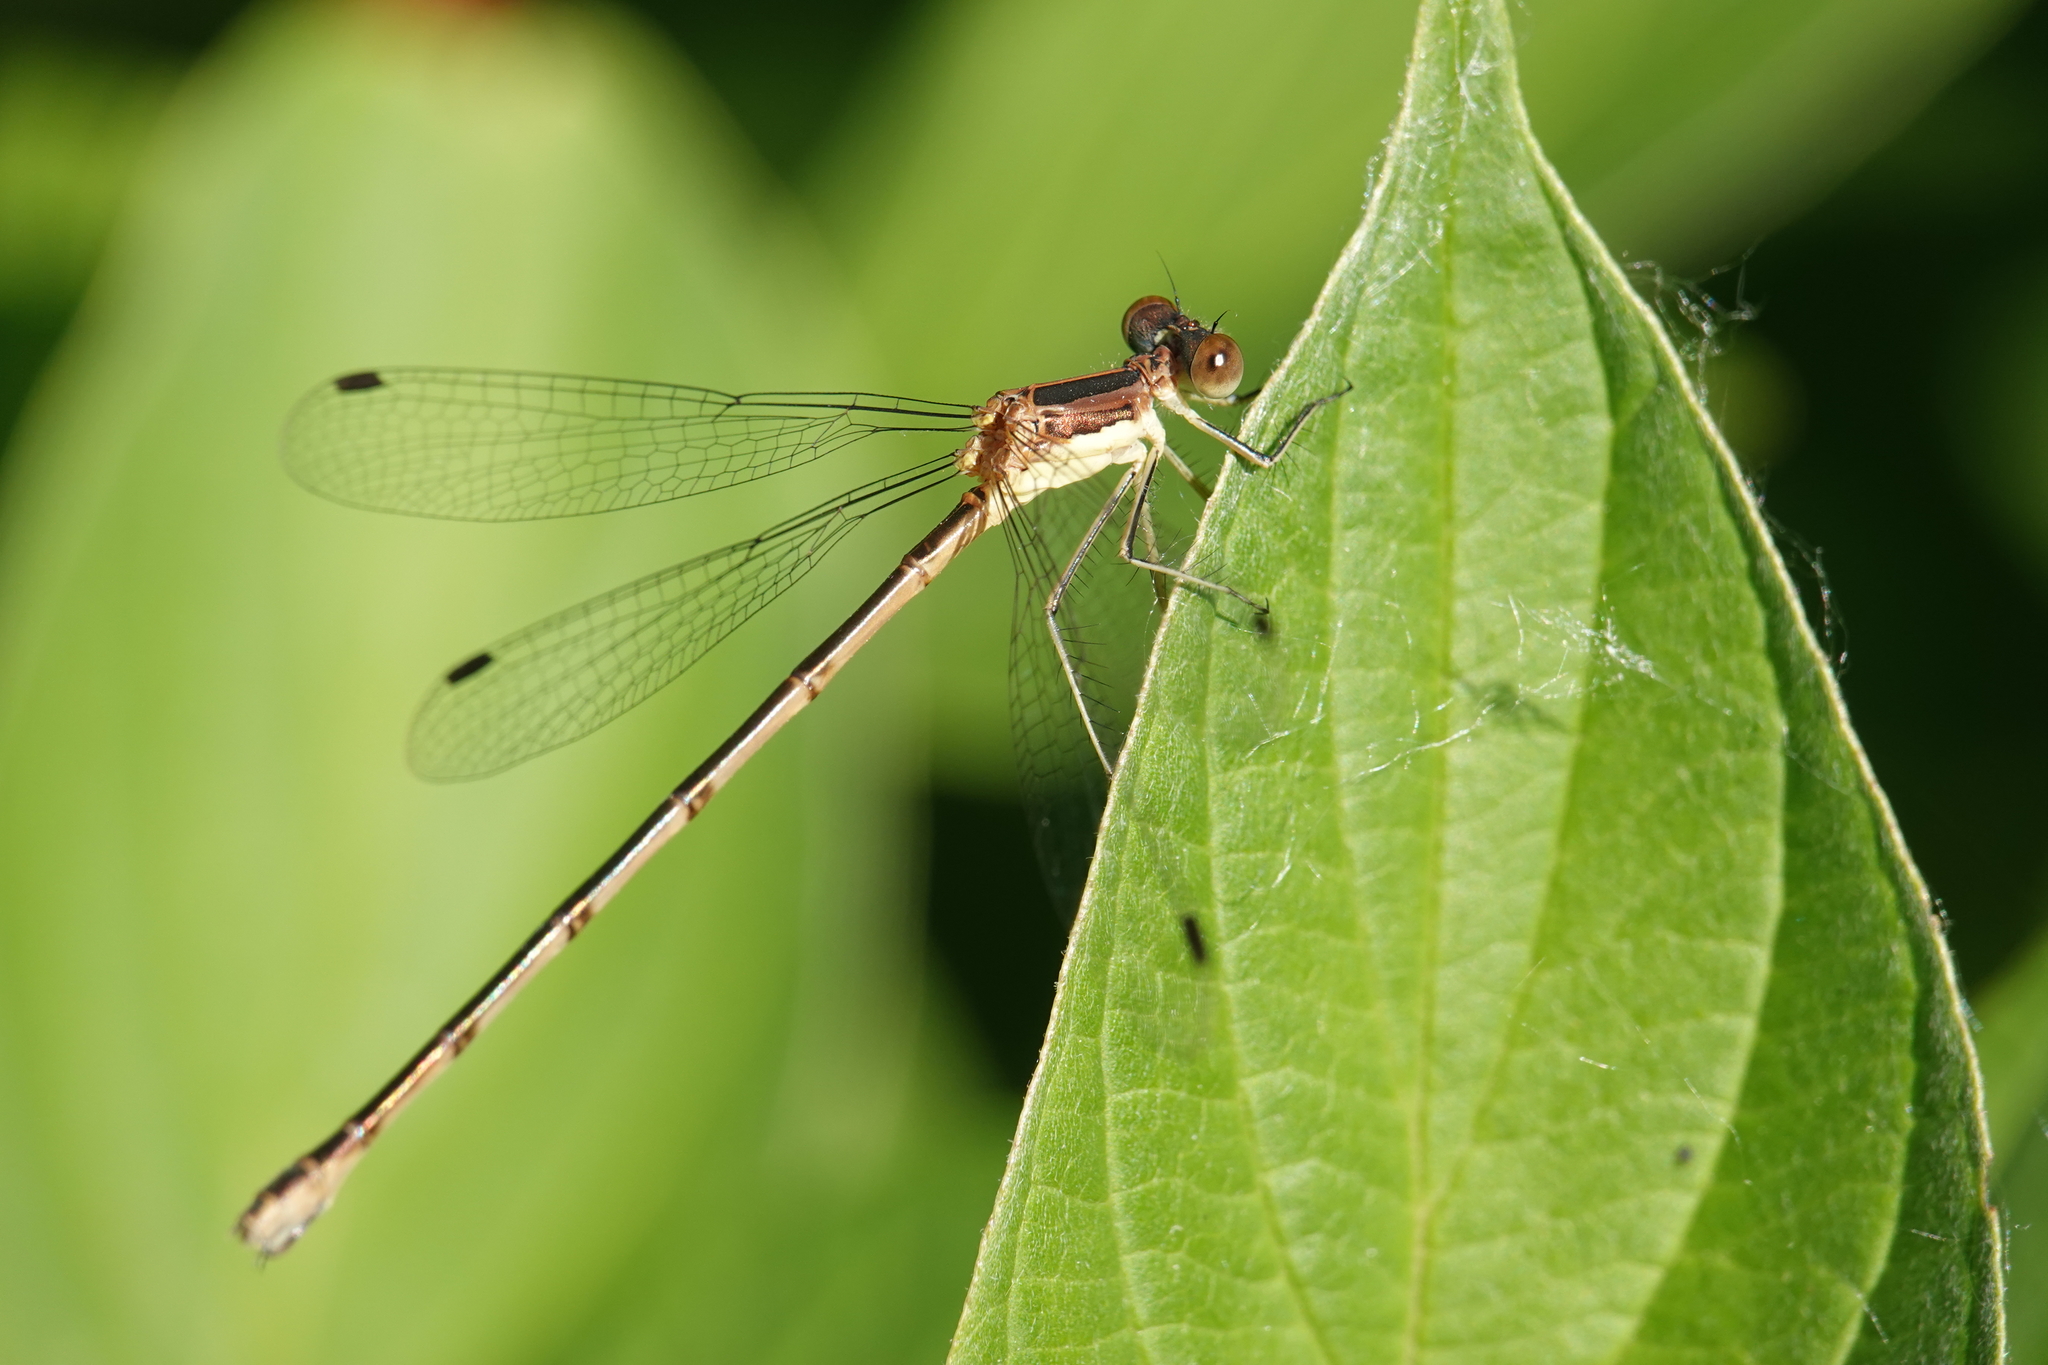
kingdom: Animalia
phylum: Arthropoda
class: Insecta
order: Odonata
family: Lestidae
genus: Lestes
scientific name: Lestes rectangularis
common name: Slender spreadwing
